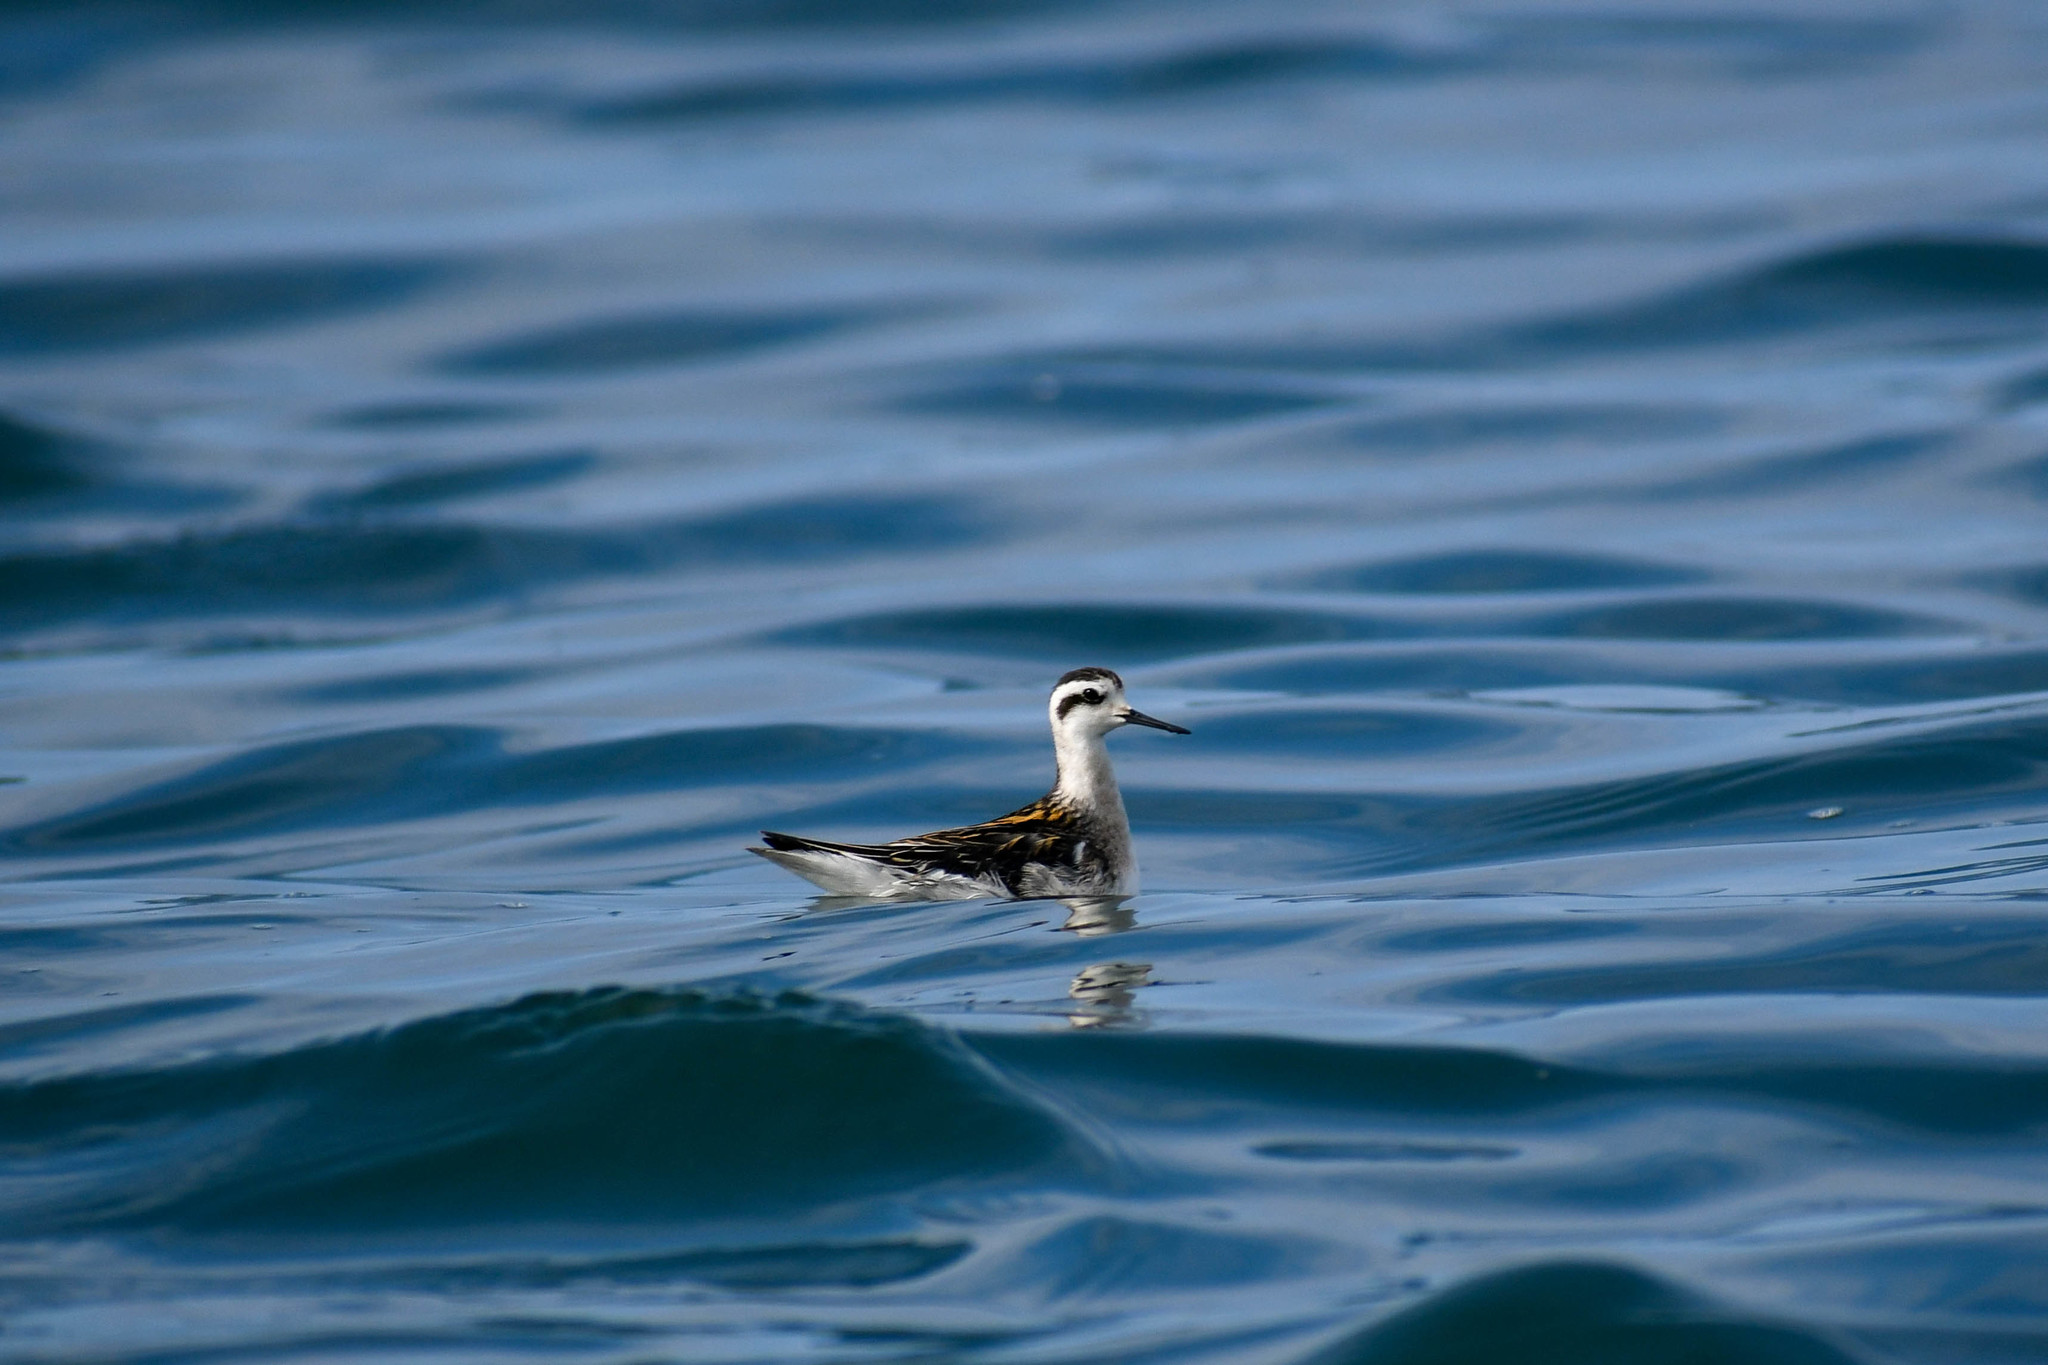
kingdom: Animalia
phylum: Chordata
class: Aves
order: Charadriiformes
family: Scolopacidae
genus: Phalaropus
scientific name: Phalaropus lobatus
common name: Red-necked phalarope
